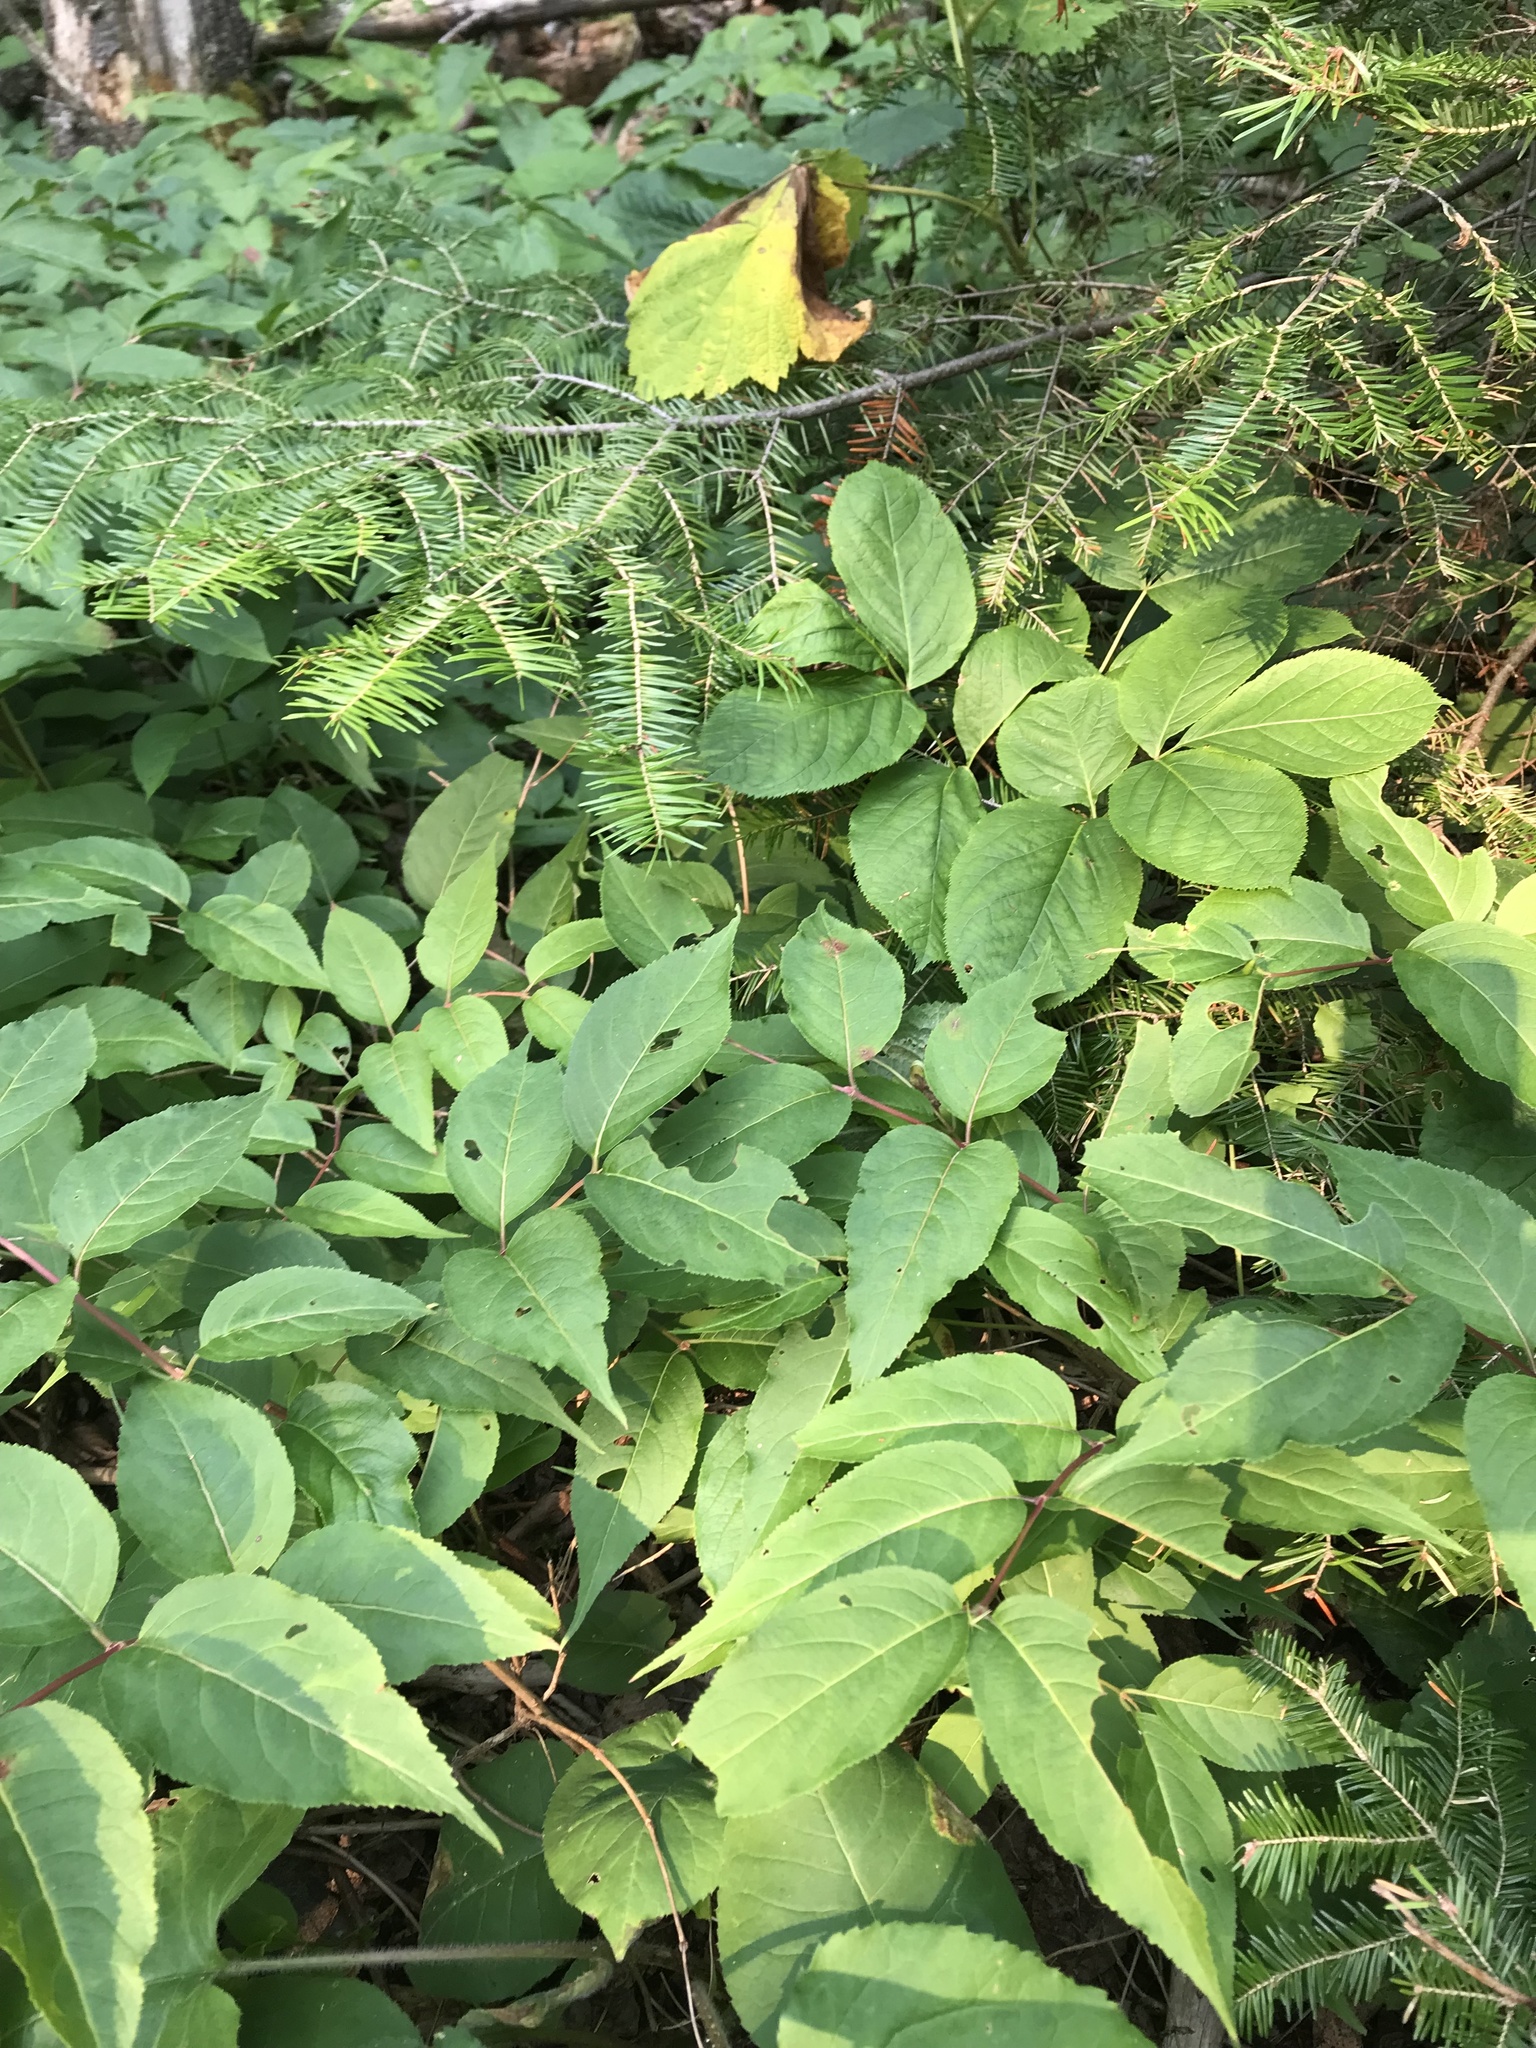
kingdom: Plantae
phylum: Tracheophyta
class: Magnoliopsida
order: Dipsacales
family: Caprifoliaceae
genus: Diervilla
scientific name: Diervilla lonicera
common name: Bush-honeysuckle
